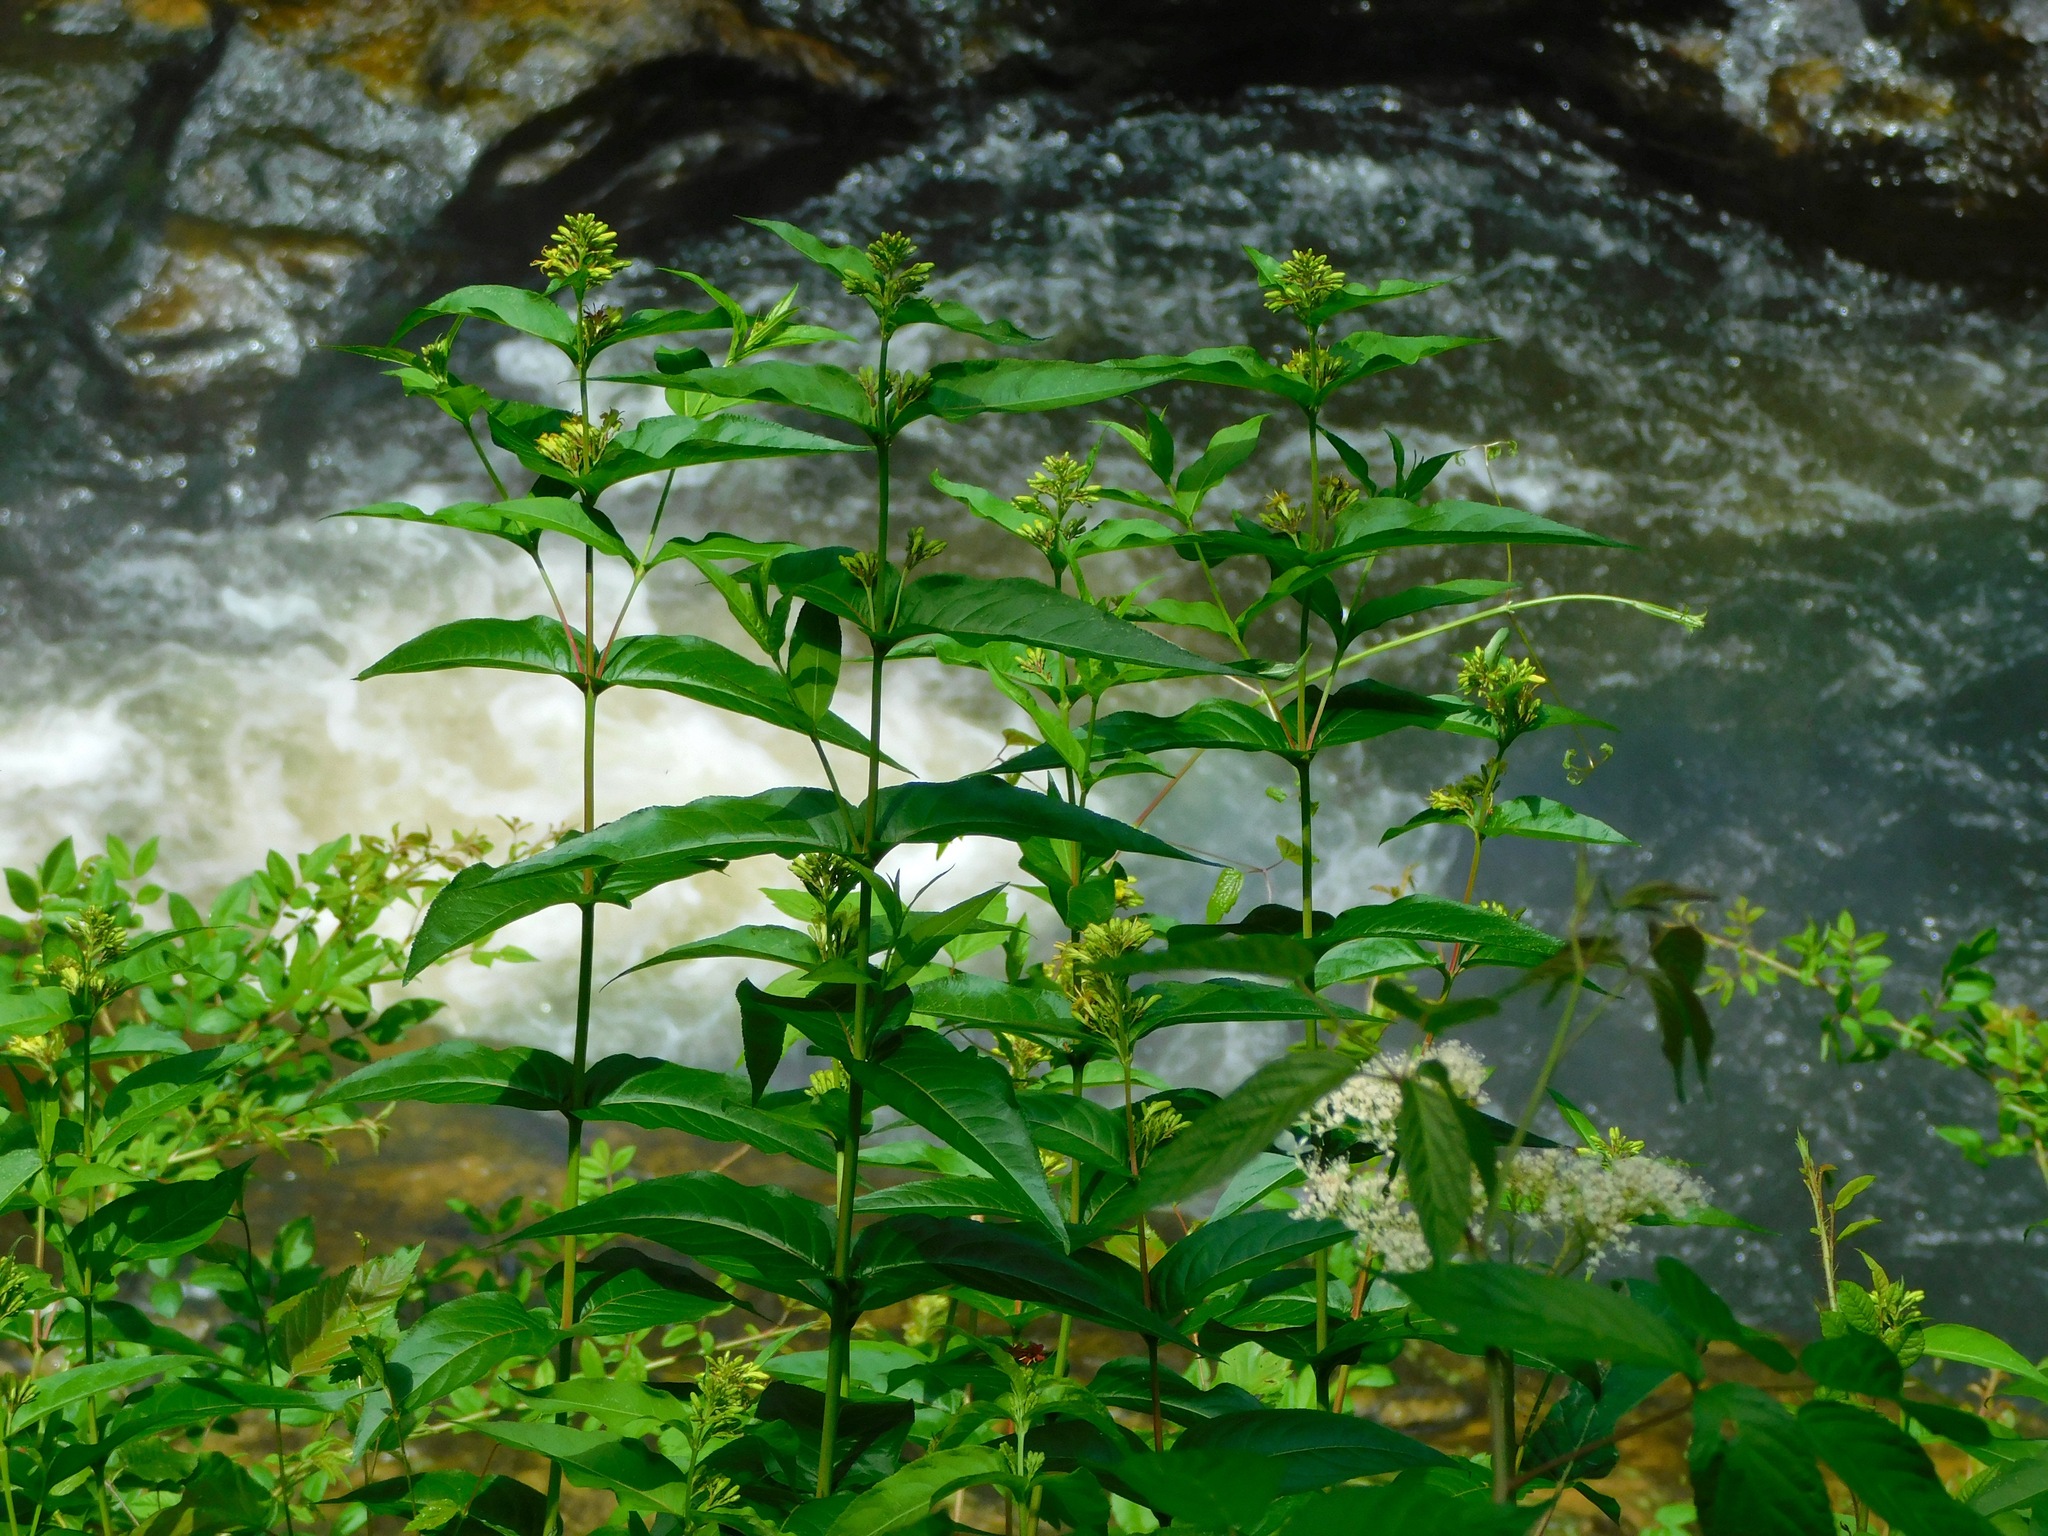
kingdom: Plantae
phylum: Tracheophyta
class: Magnoliopsida
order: Dipsacales
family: Caprifoliaceae
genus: Diervilla
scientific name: Diervilla sessilifolia
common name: Bush-honeysuckle
